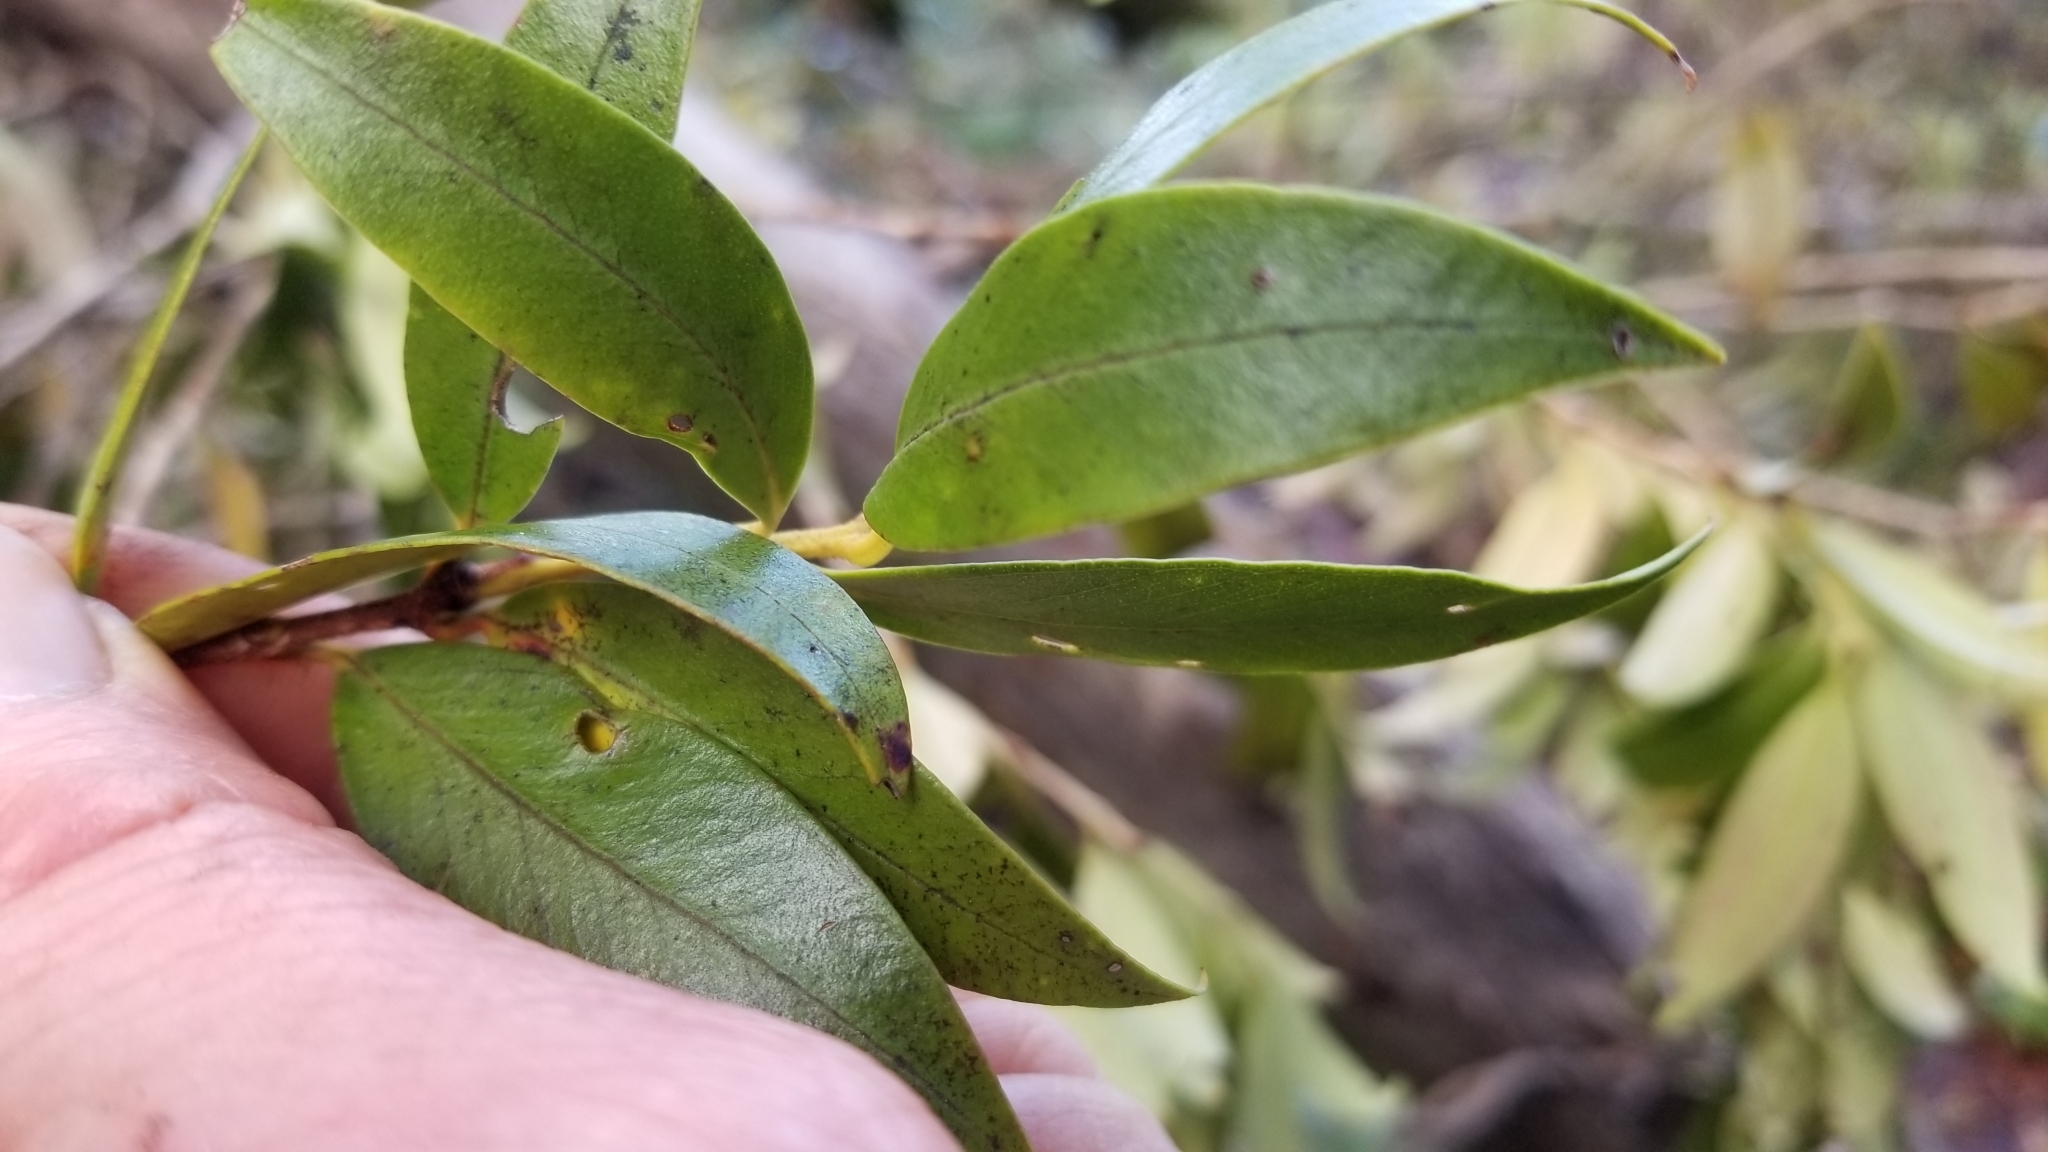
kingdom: Plantae
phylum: Tracheophyta
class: Magnoliopsida
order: Myrtales
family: Myrtaceae
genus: Metrosideros
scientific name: Metrosideros umbellata
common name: Southern rata
